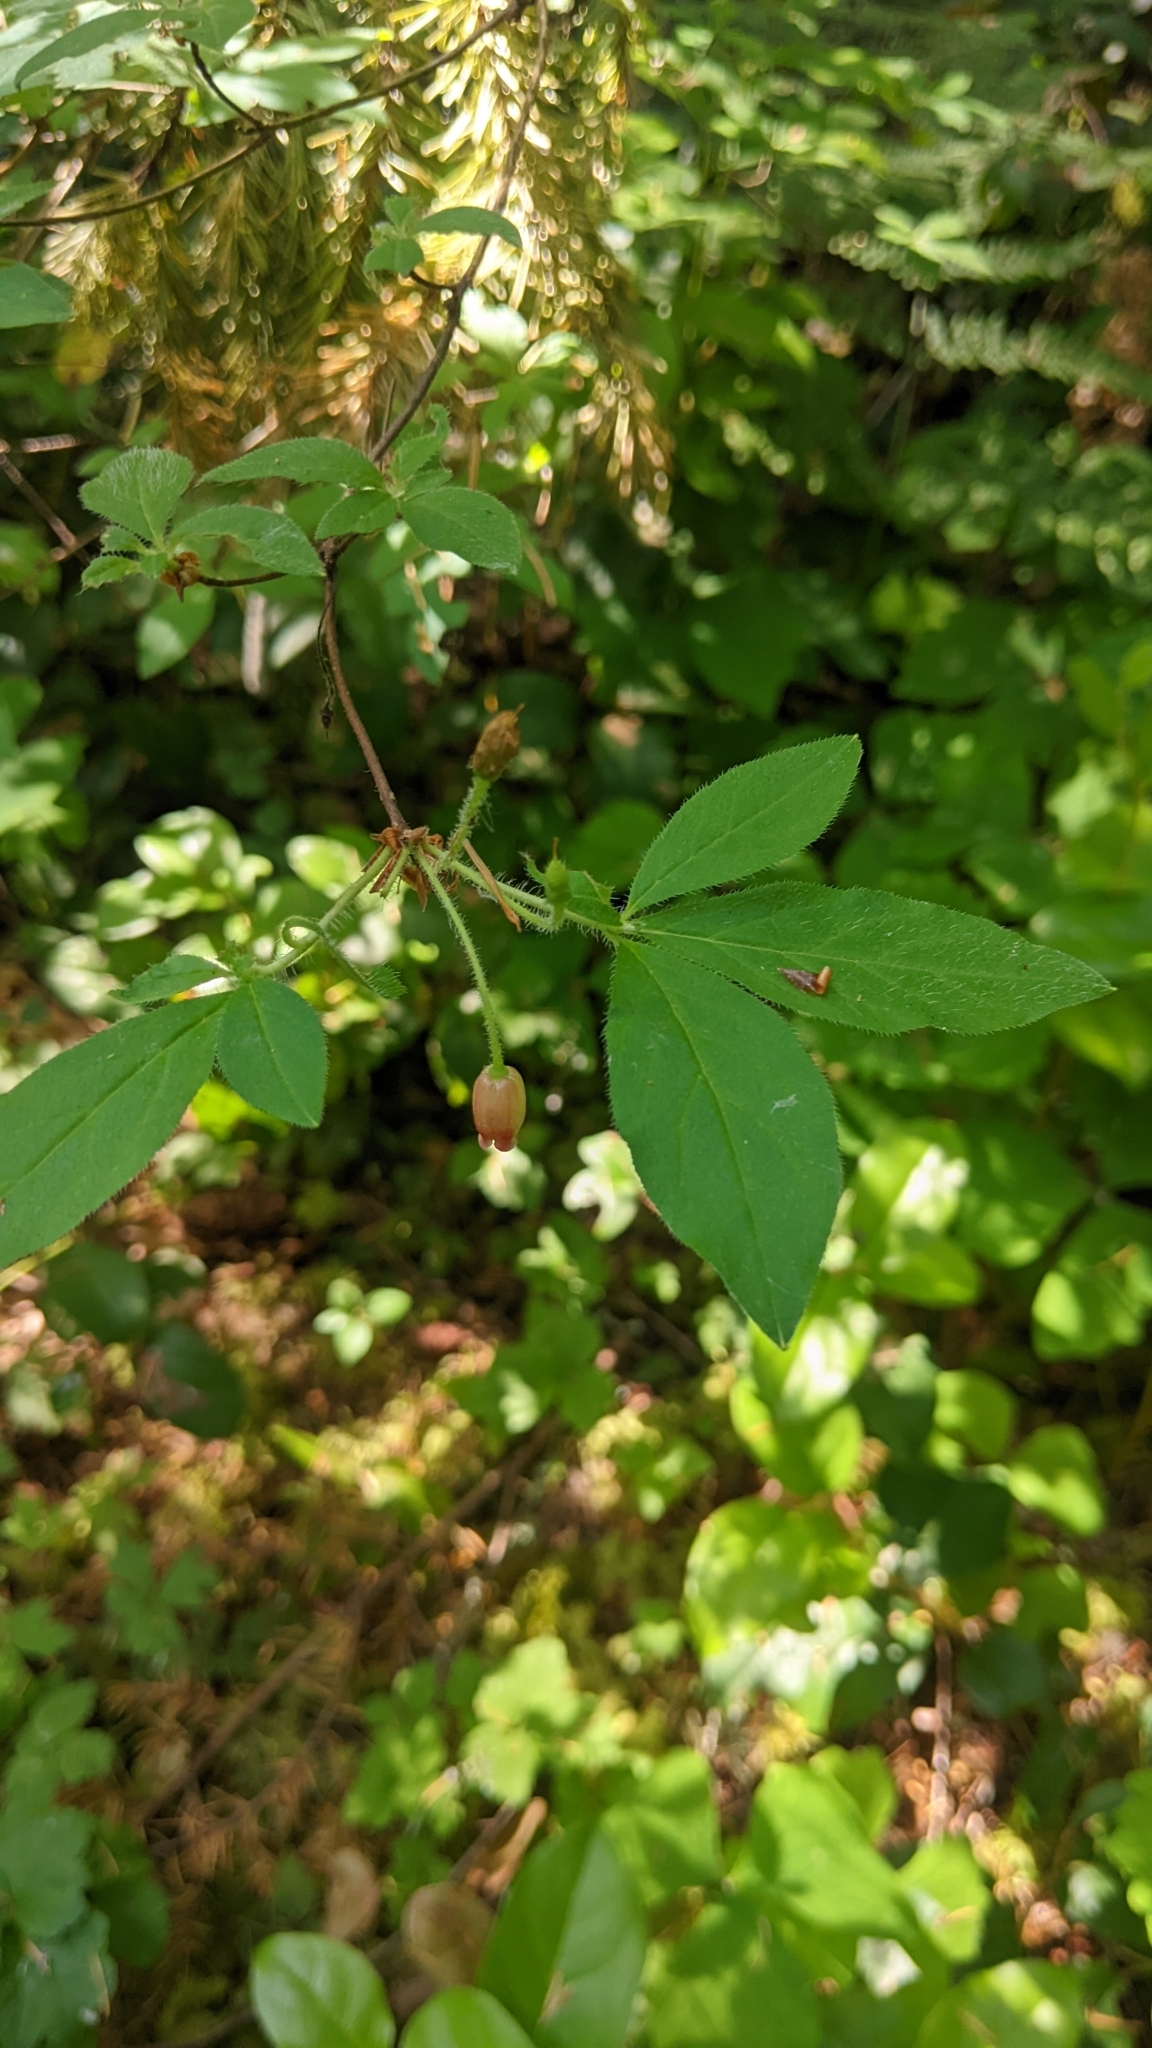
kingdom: Plantae
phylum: Tracheophyta
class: Magnoliopsida
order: Ericales
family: Ericaceae
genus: Rhododendron
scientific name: Rhododendron menziesii
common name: Pacific menziesia
